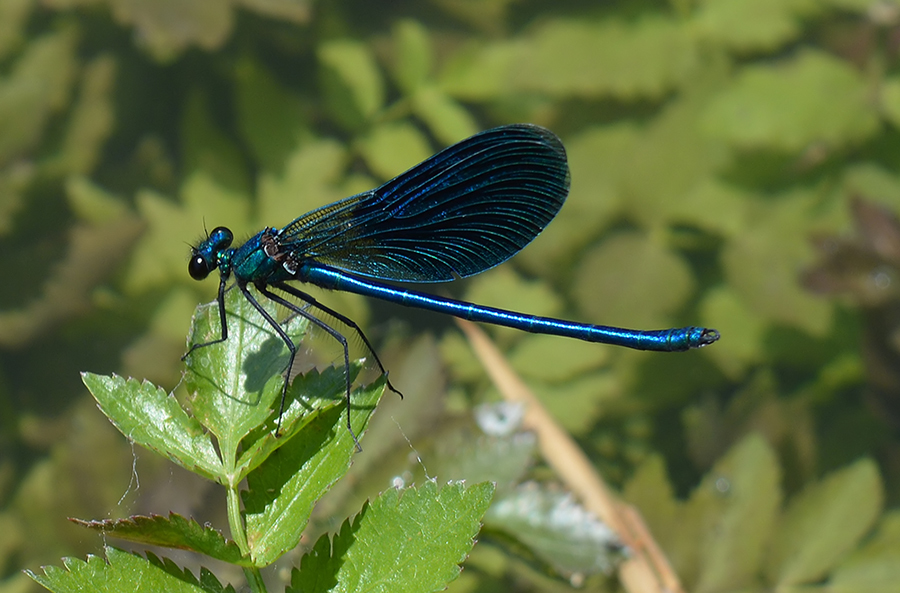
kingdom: Animalia
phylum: Arthropoda
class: Insecta
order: Odonata
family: Calopterygidae
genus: Calopteryx
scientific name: Calopteryx virgo
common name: Beautiful demoiselle
